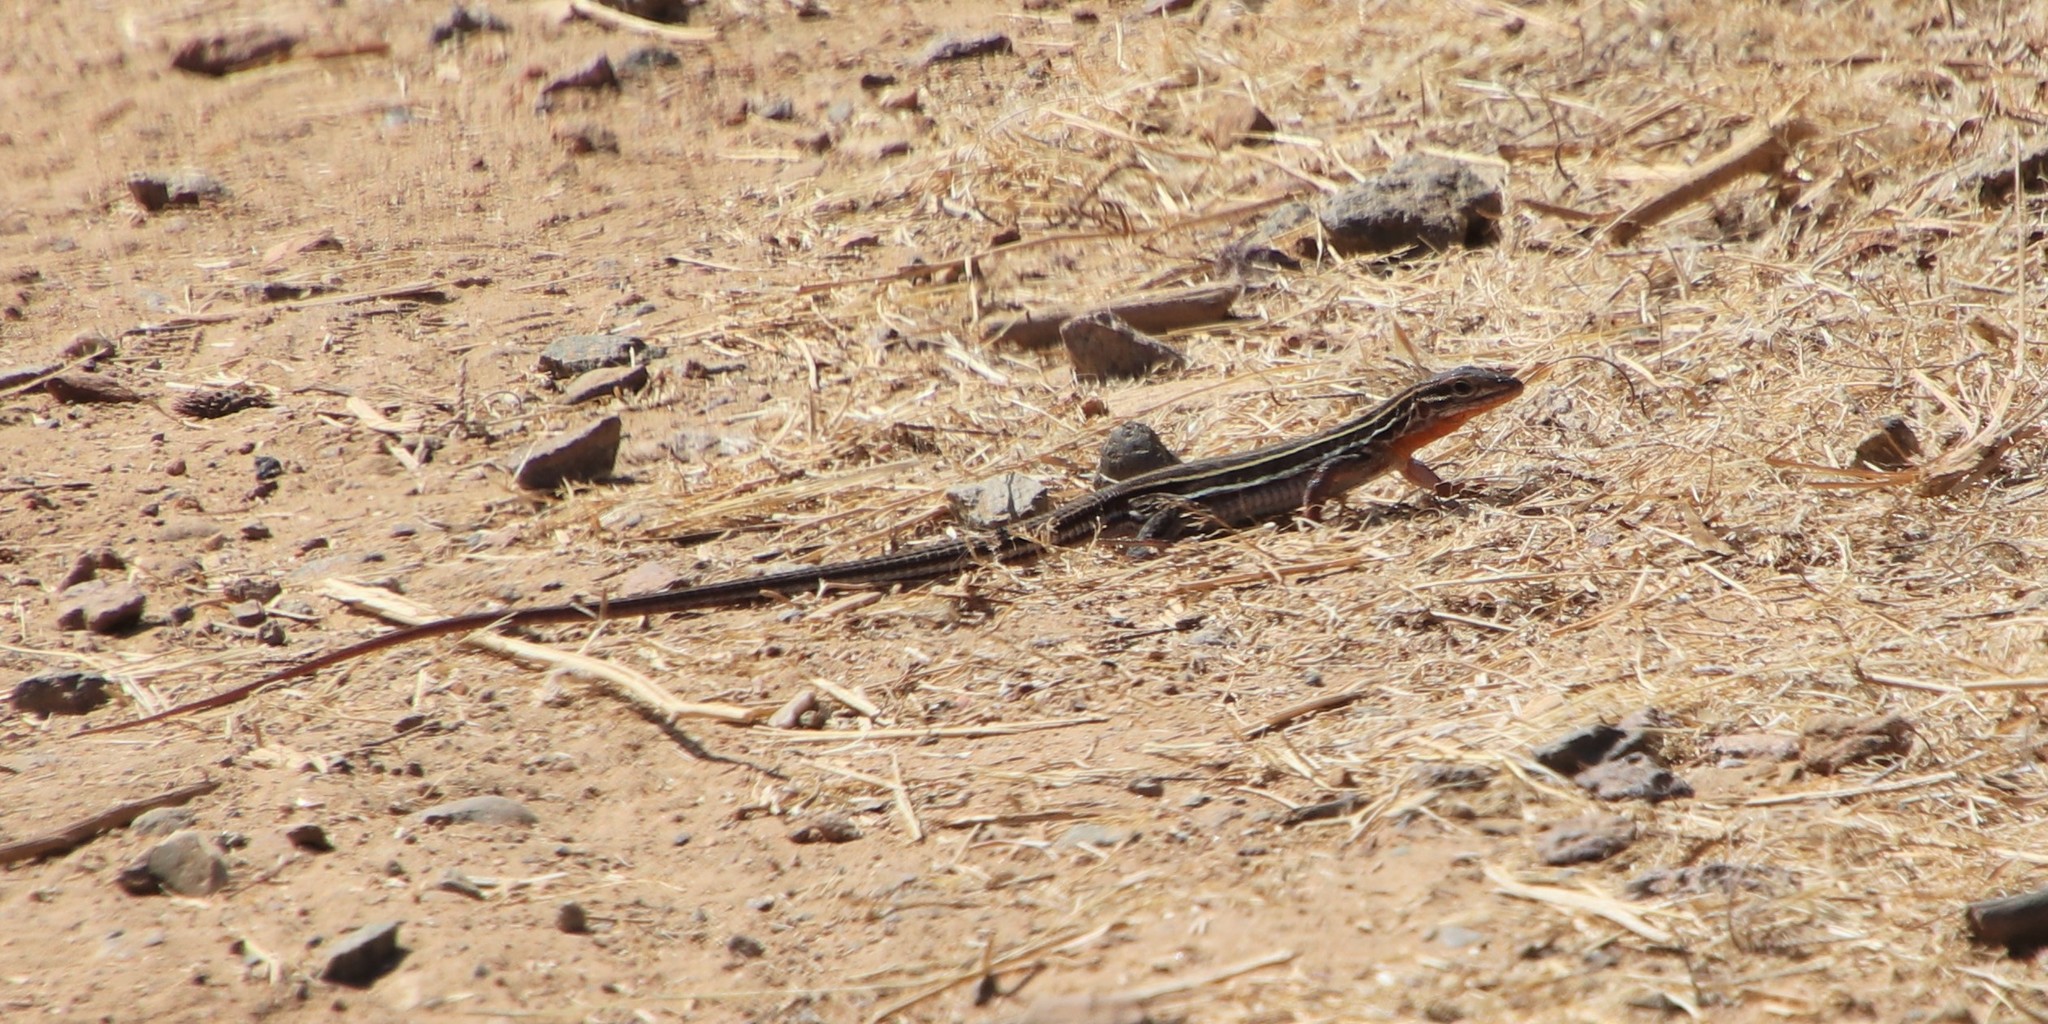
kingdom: Animalia
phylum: Chordata
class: Squamata
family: Teiidae
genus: Aspidoscelis
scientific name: Aspidoscelis hyperythrus
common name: Orange-throated race-runner
